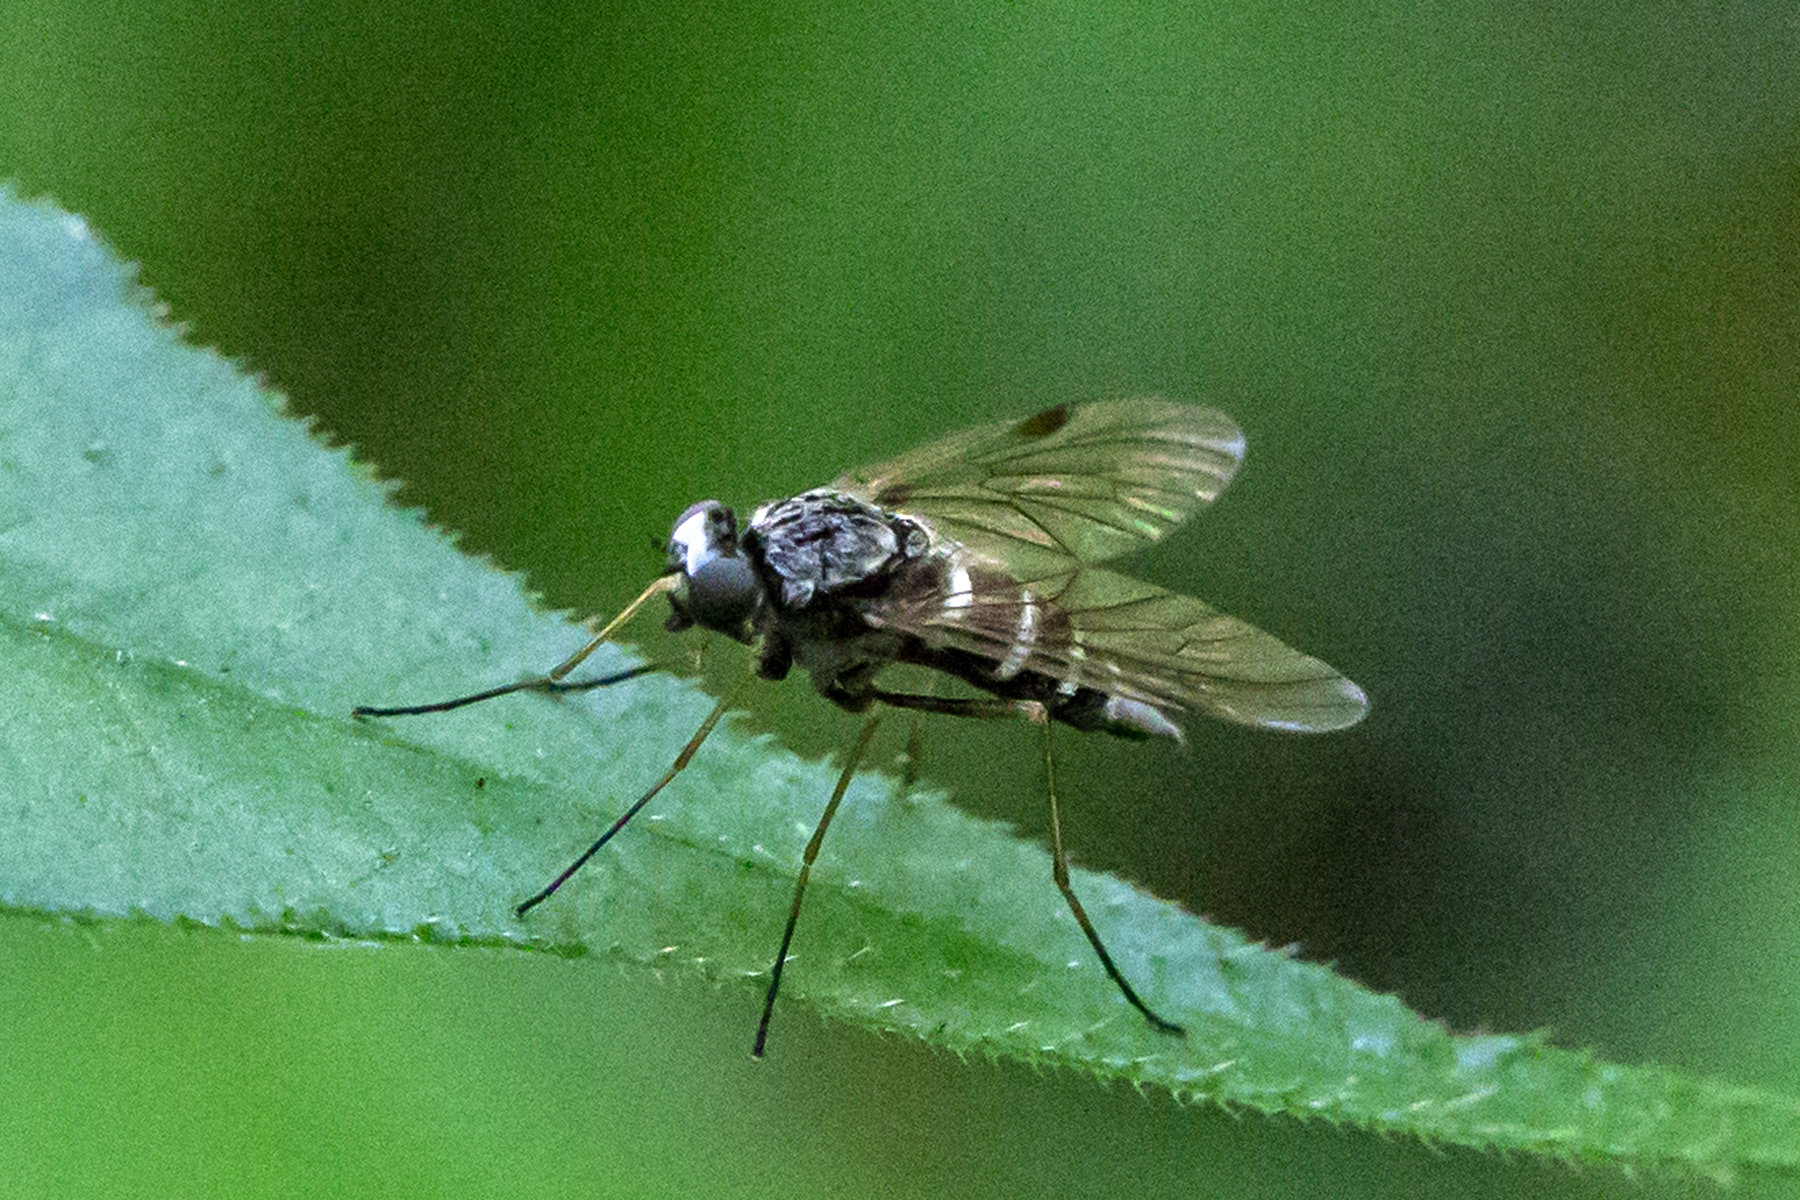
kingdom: Animalia
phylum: Arthropoda
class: Insecta
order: Diptera
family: Rhagionidae
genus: Chrysopilus
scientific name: Chrysopilus fasciatus
